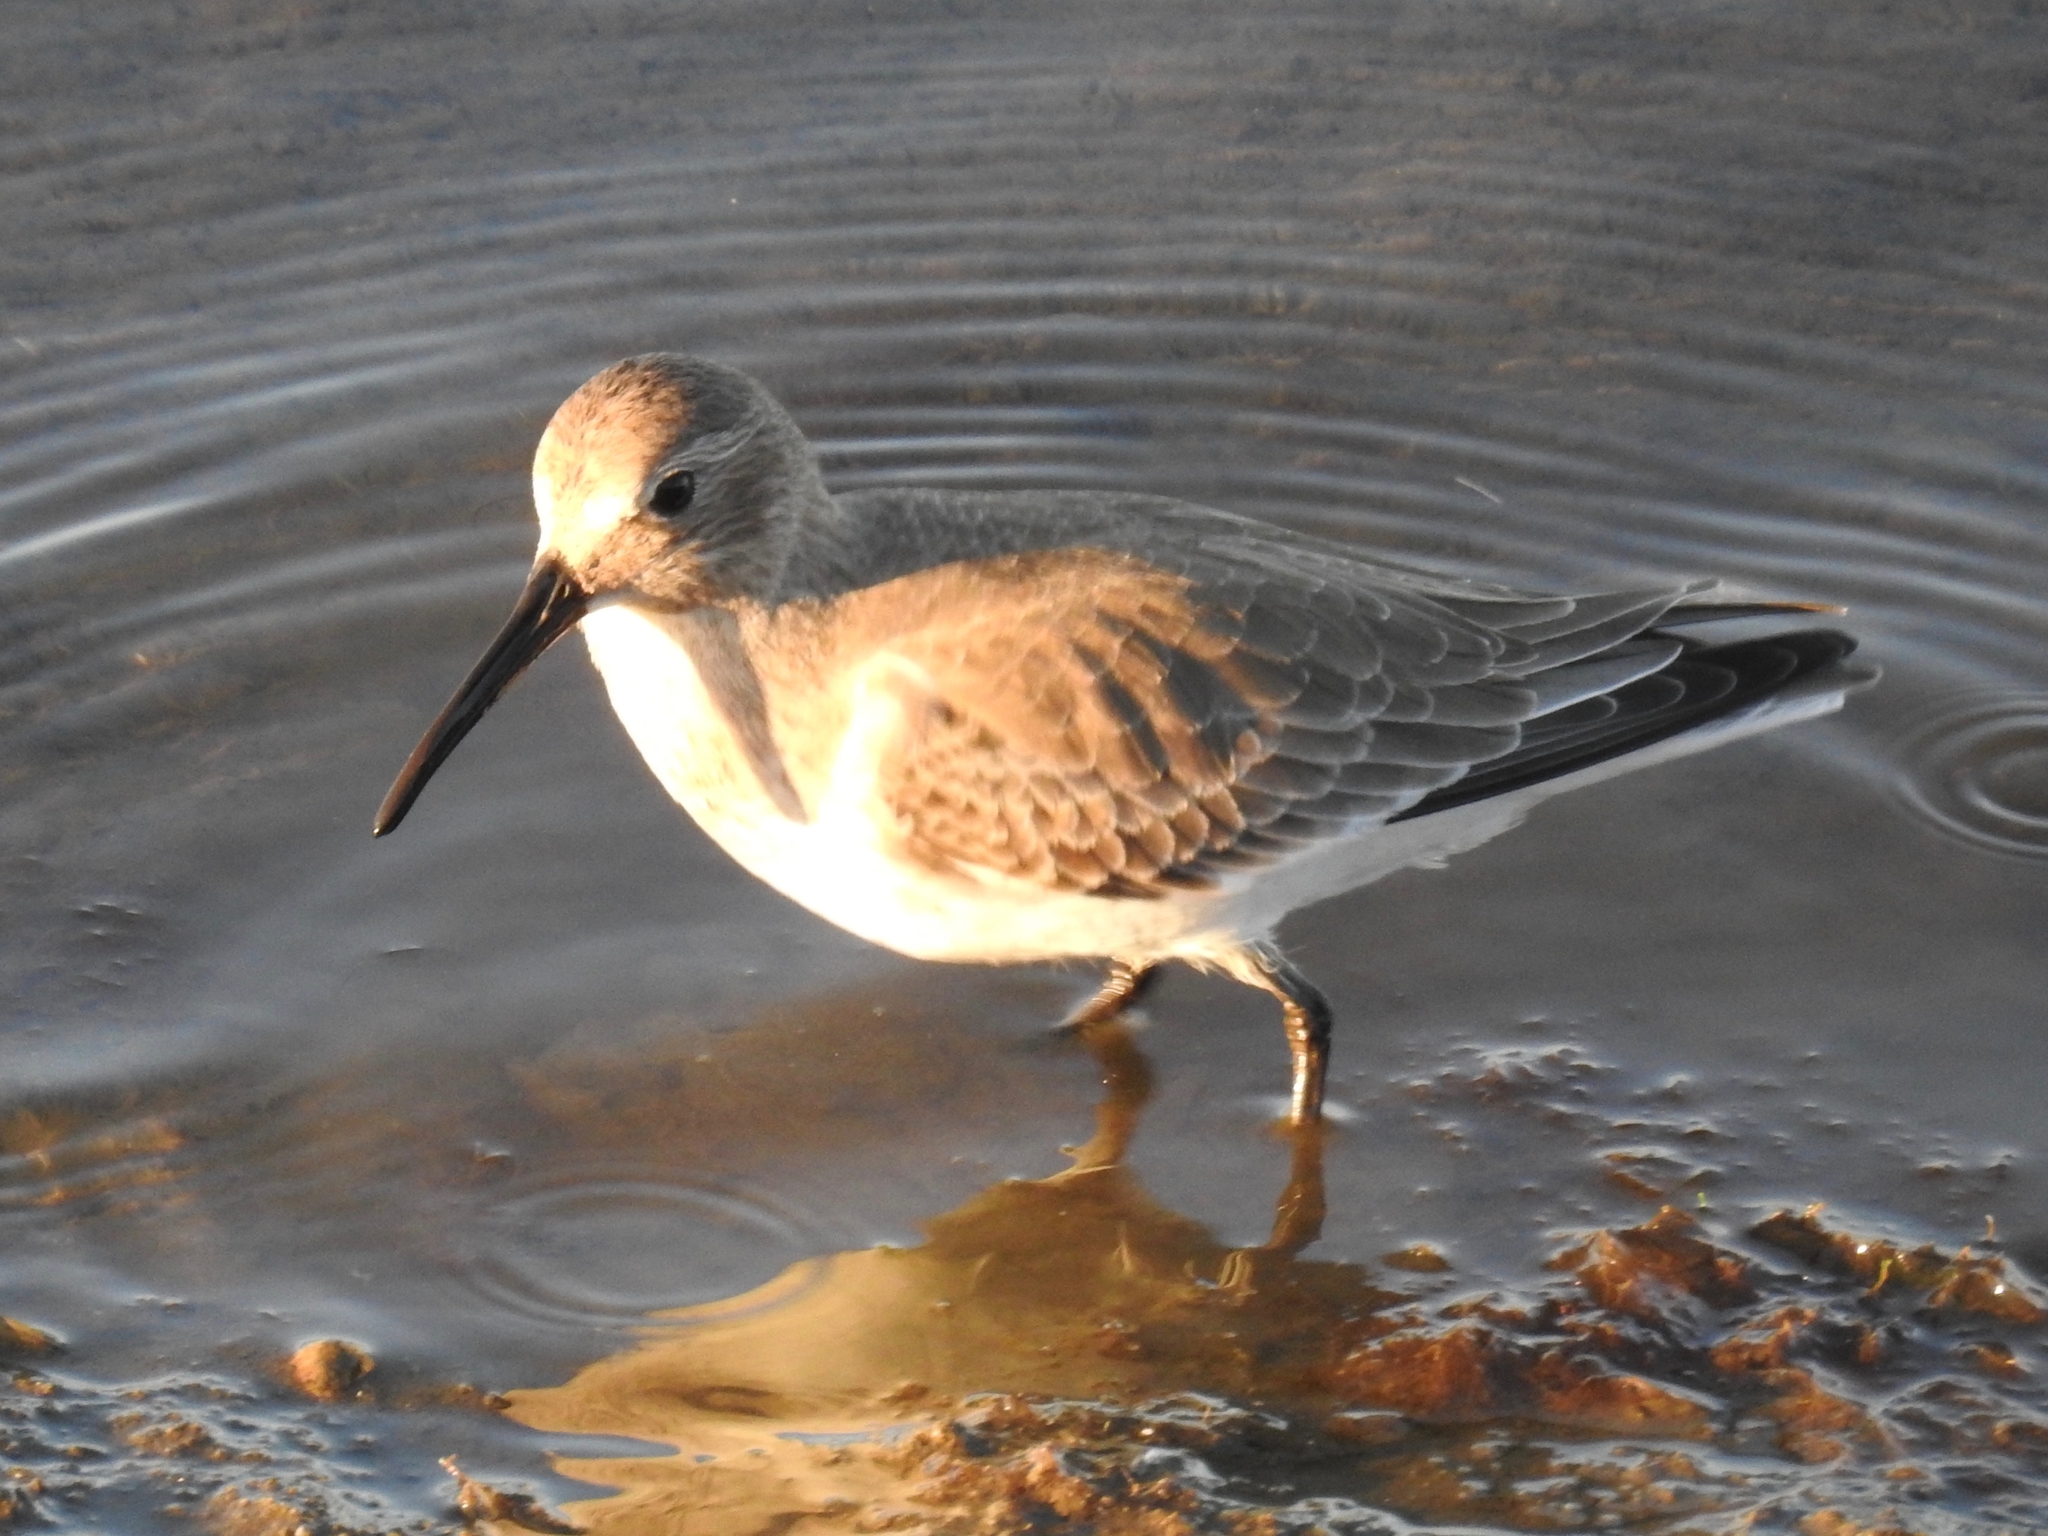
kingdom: Animalia
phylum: Chordata
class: Aves
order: Charadriiformes
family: Scolopacidae
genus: Calidris
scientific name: Calidris alpina
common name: Dunlin
